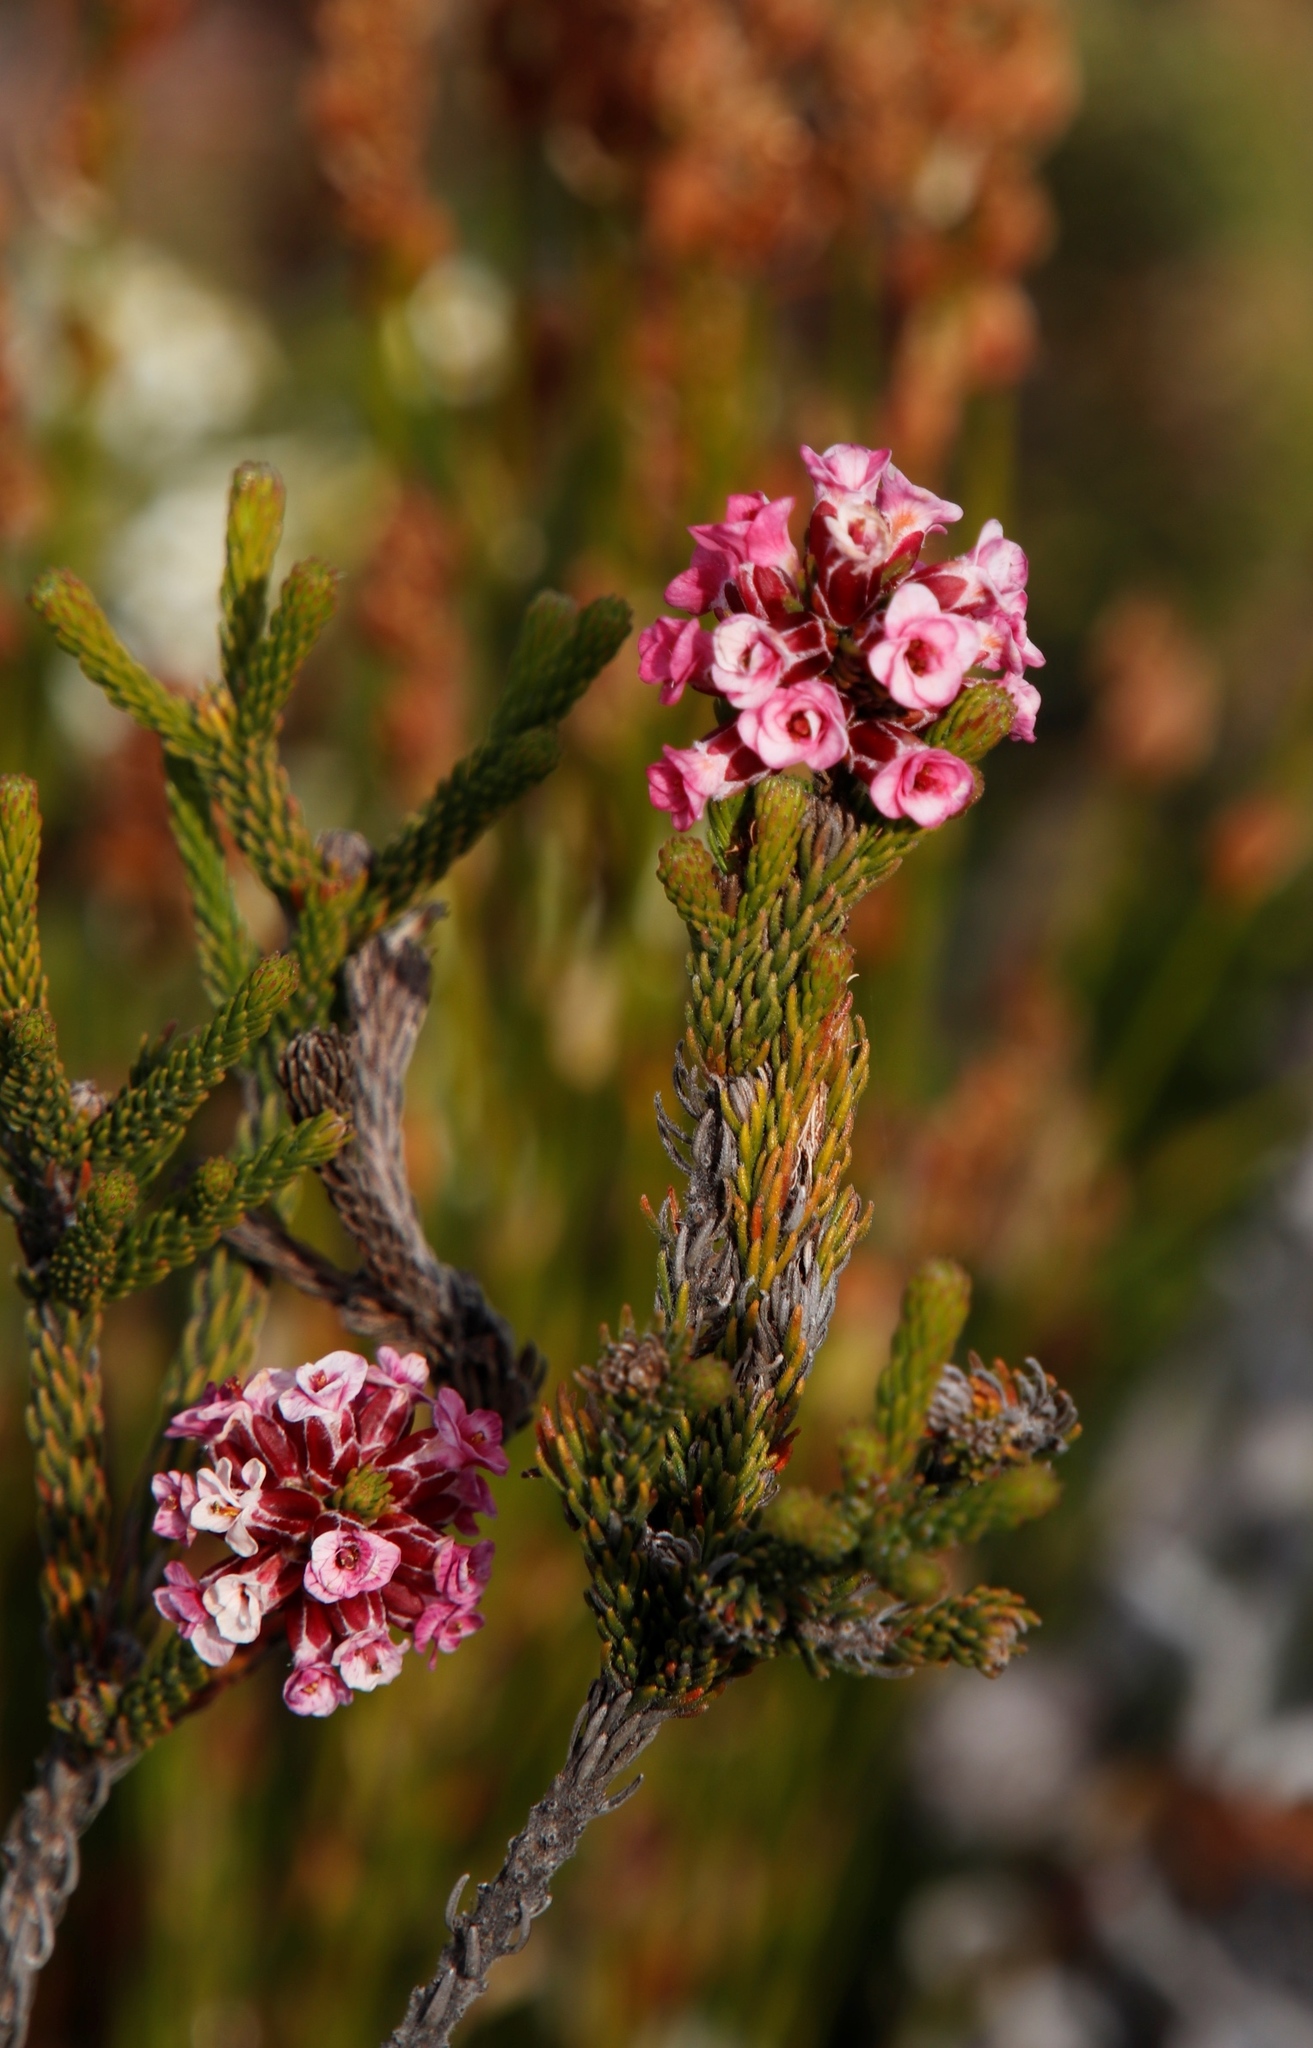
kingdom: Plantae
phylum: Tracheophyta
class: Magnoliopsida
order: Bruniales
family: Bruniaceae
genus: Audouinia
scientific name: Audouinia capitata
